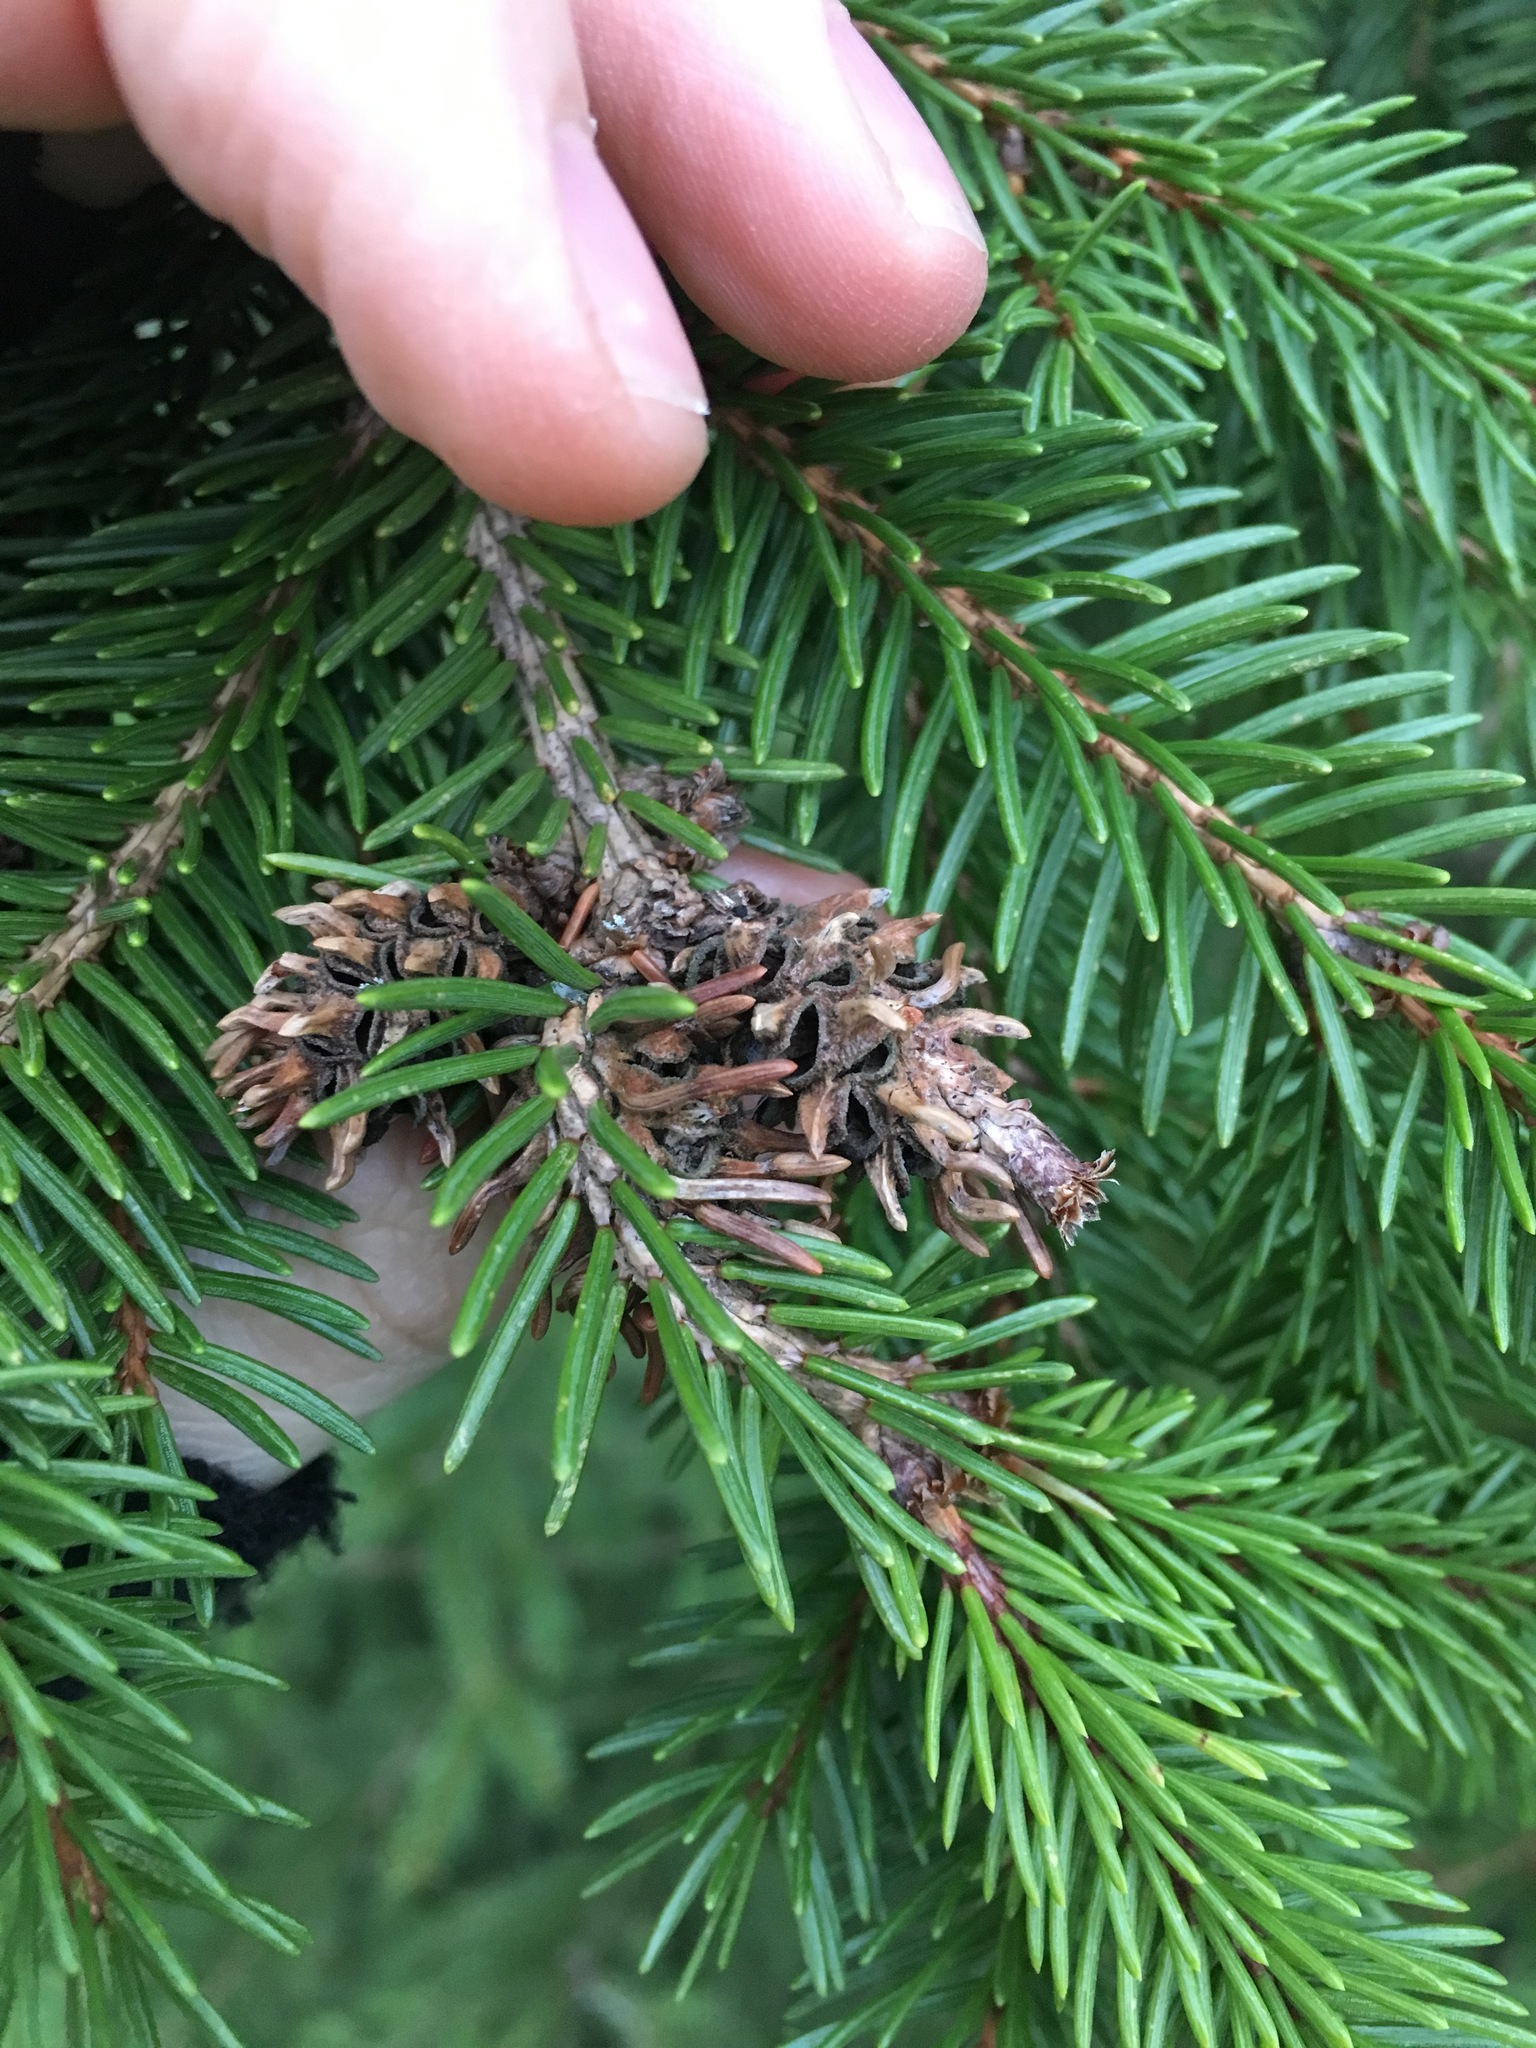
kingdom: Animalia
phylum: Arthropoda
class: Insecta
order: Hemiptera
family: Adelgidae
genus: Adelges
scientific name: Adelges abietis
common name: Eastern spruce gall adelgid
